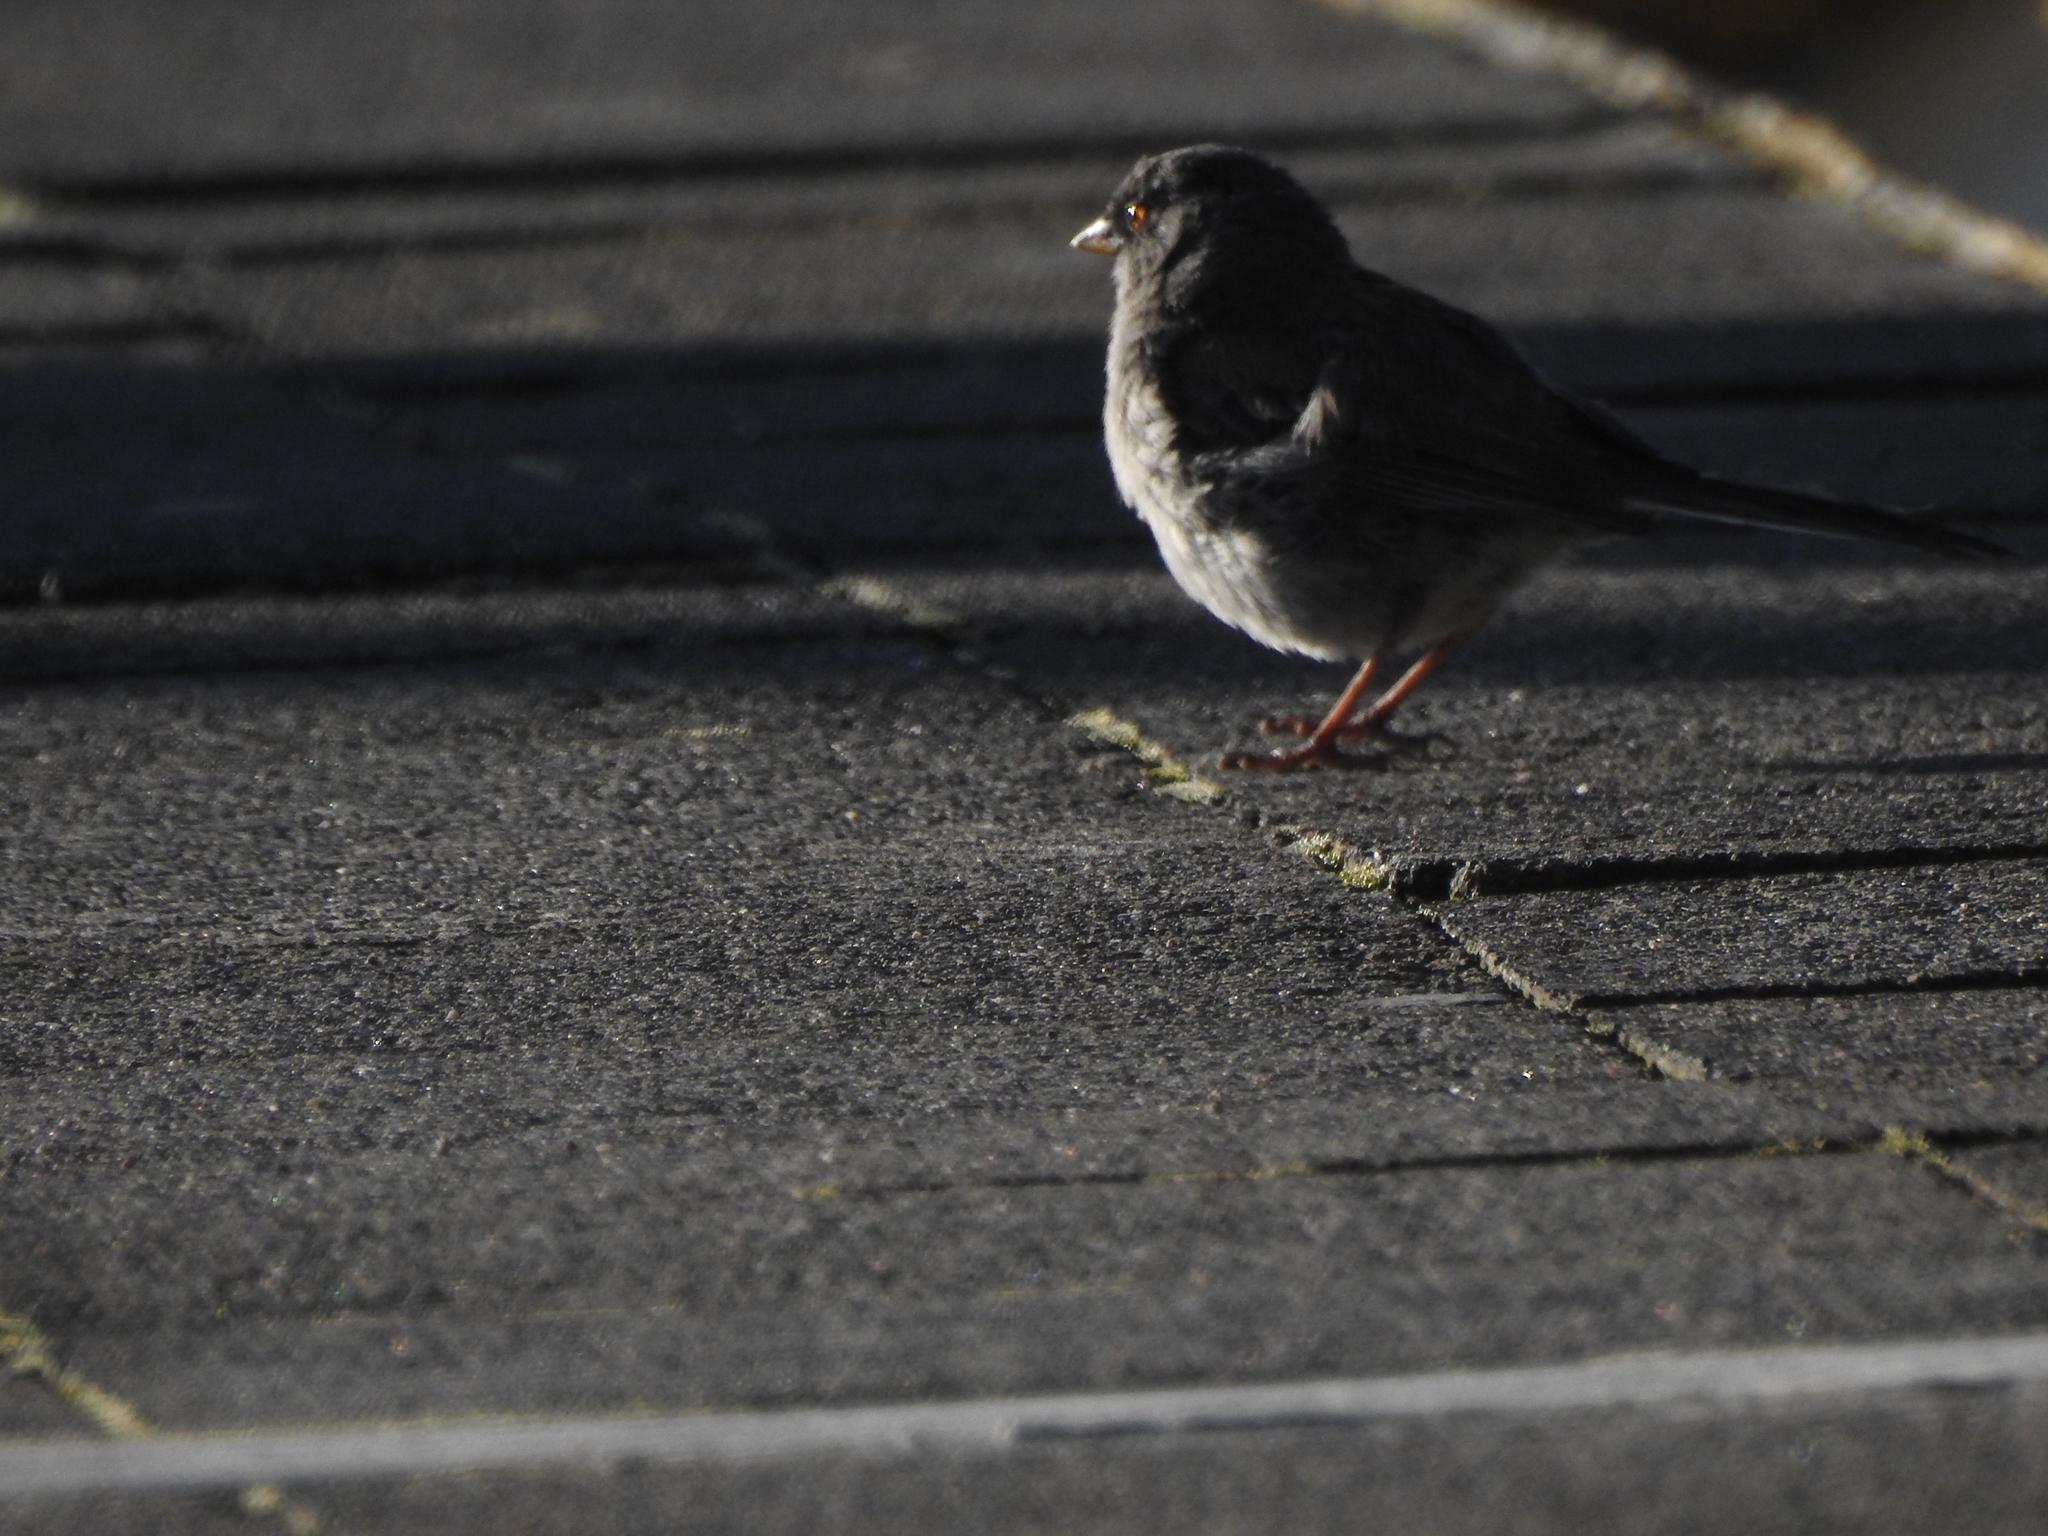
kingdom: Animalia
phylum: Chordata
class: Aves
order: Passeriformes
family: Passerellidae
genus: Junco
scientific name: Junco phaeonotus
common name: Yellow-eyed junco
